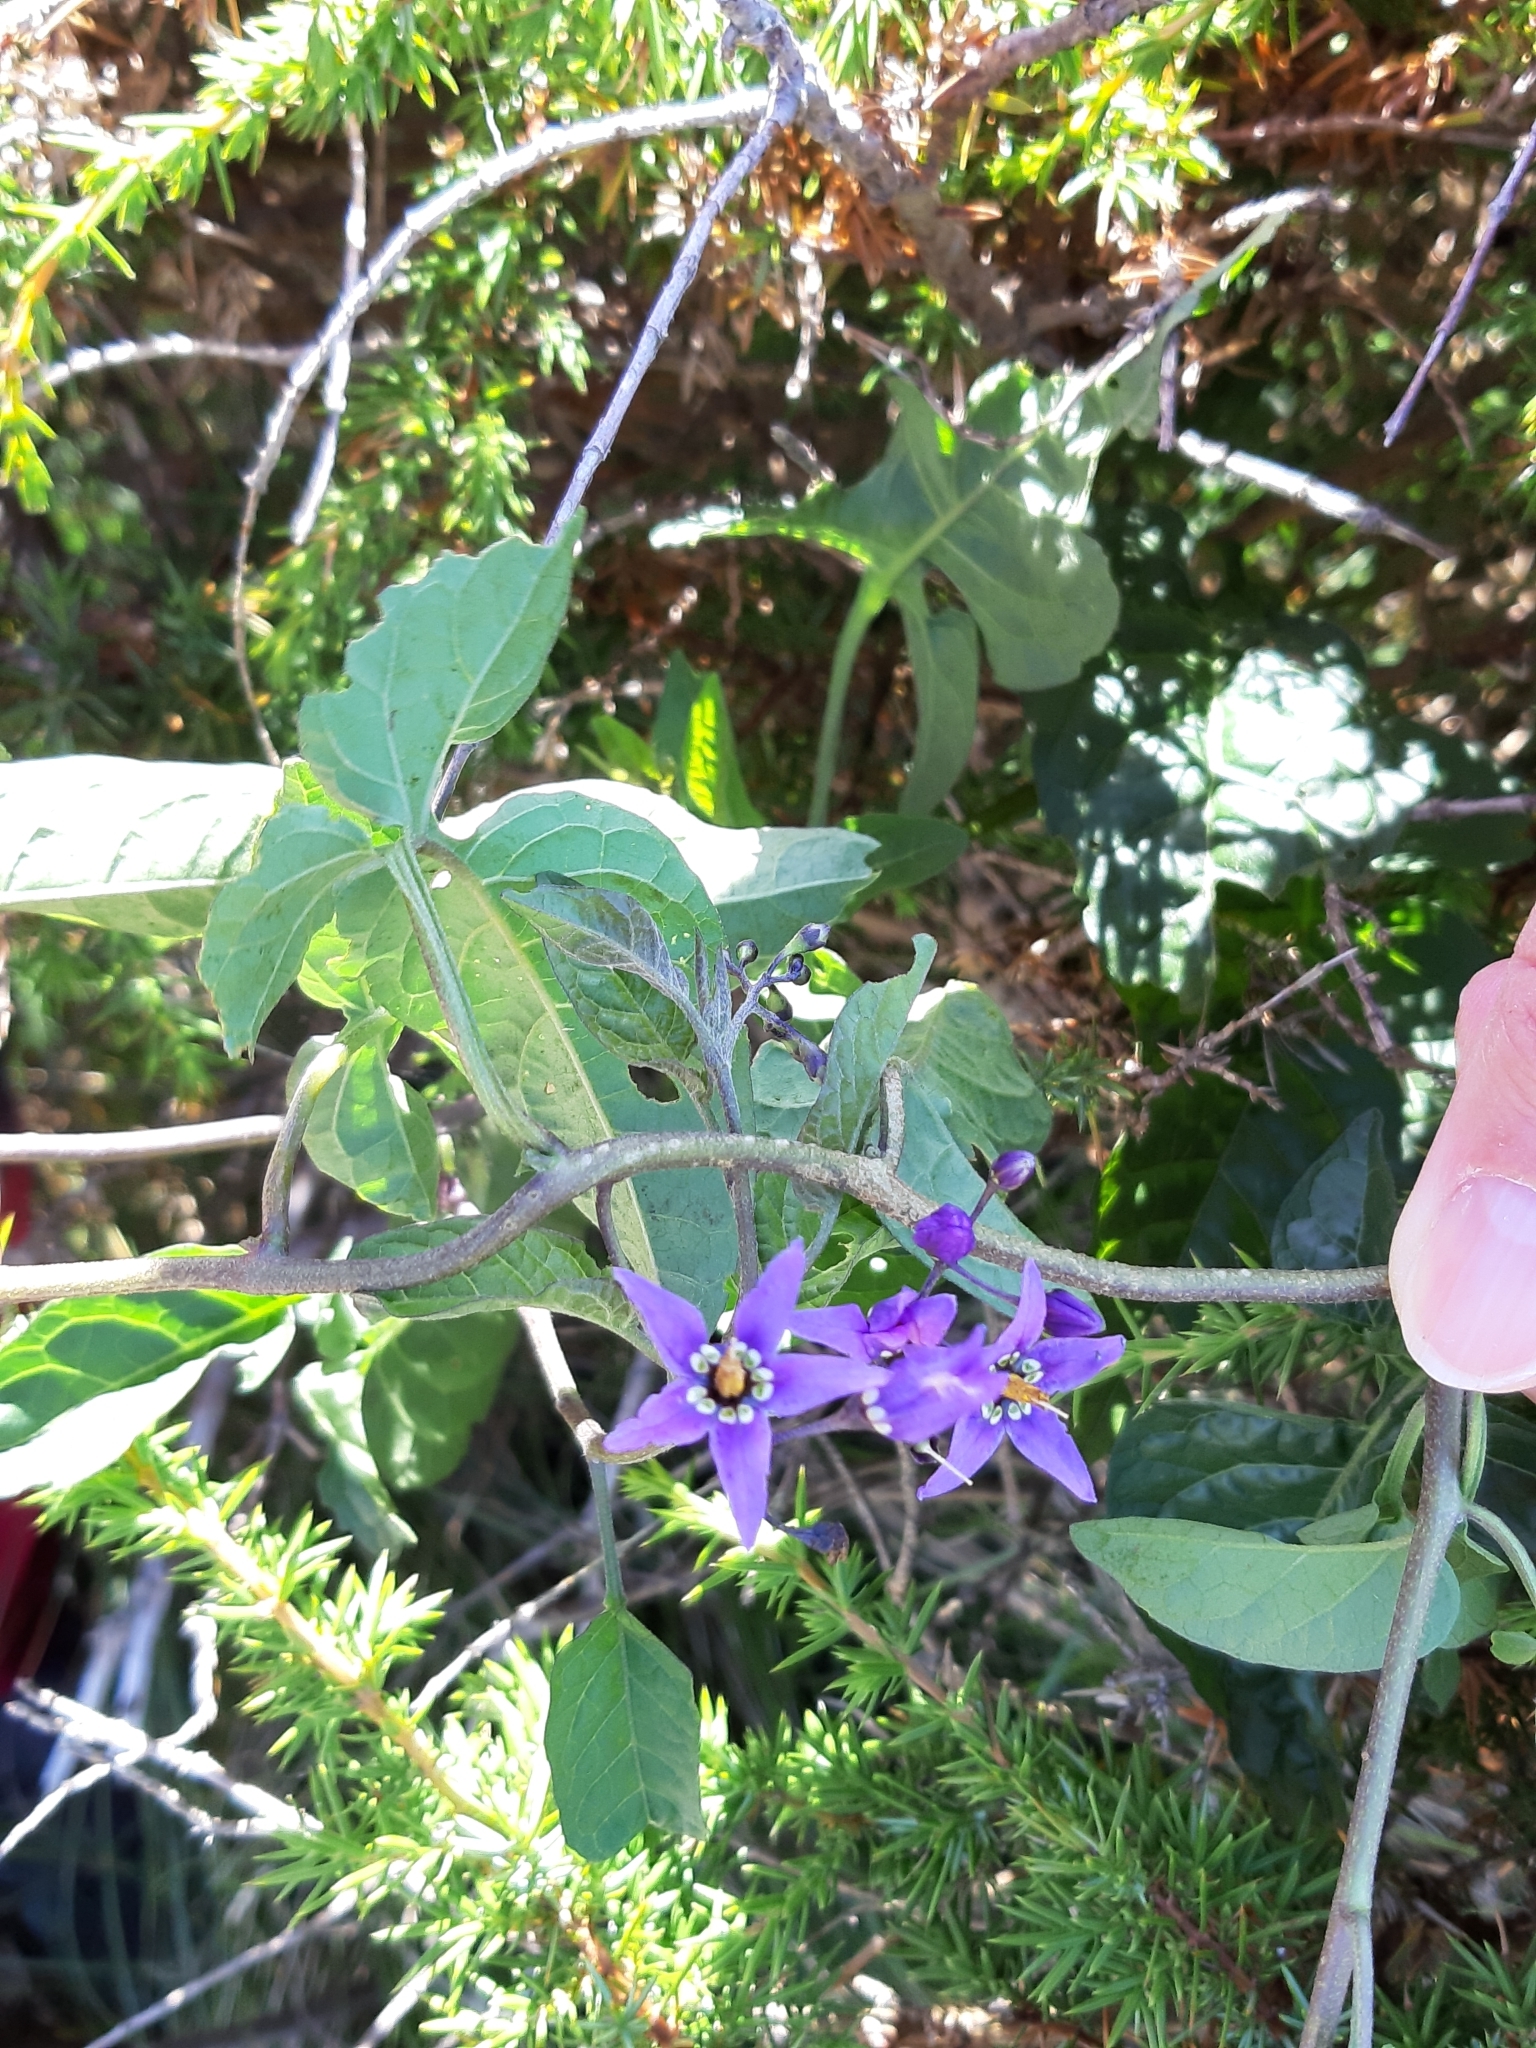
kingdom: Plantae
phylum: Tracheophyta
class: Magnoliopsida
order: Solanales
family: Solanaceae
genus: Solanum
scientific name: Solanum dulcamara
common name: Climbing nightshade
